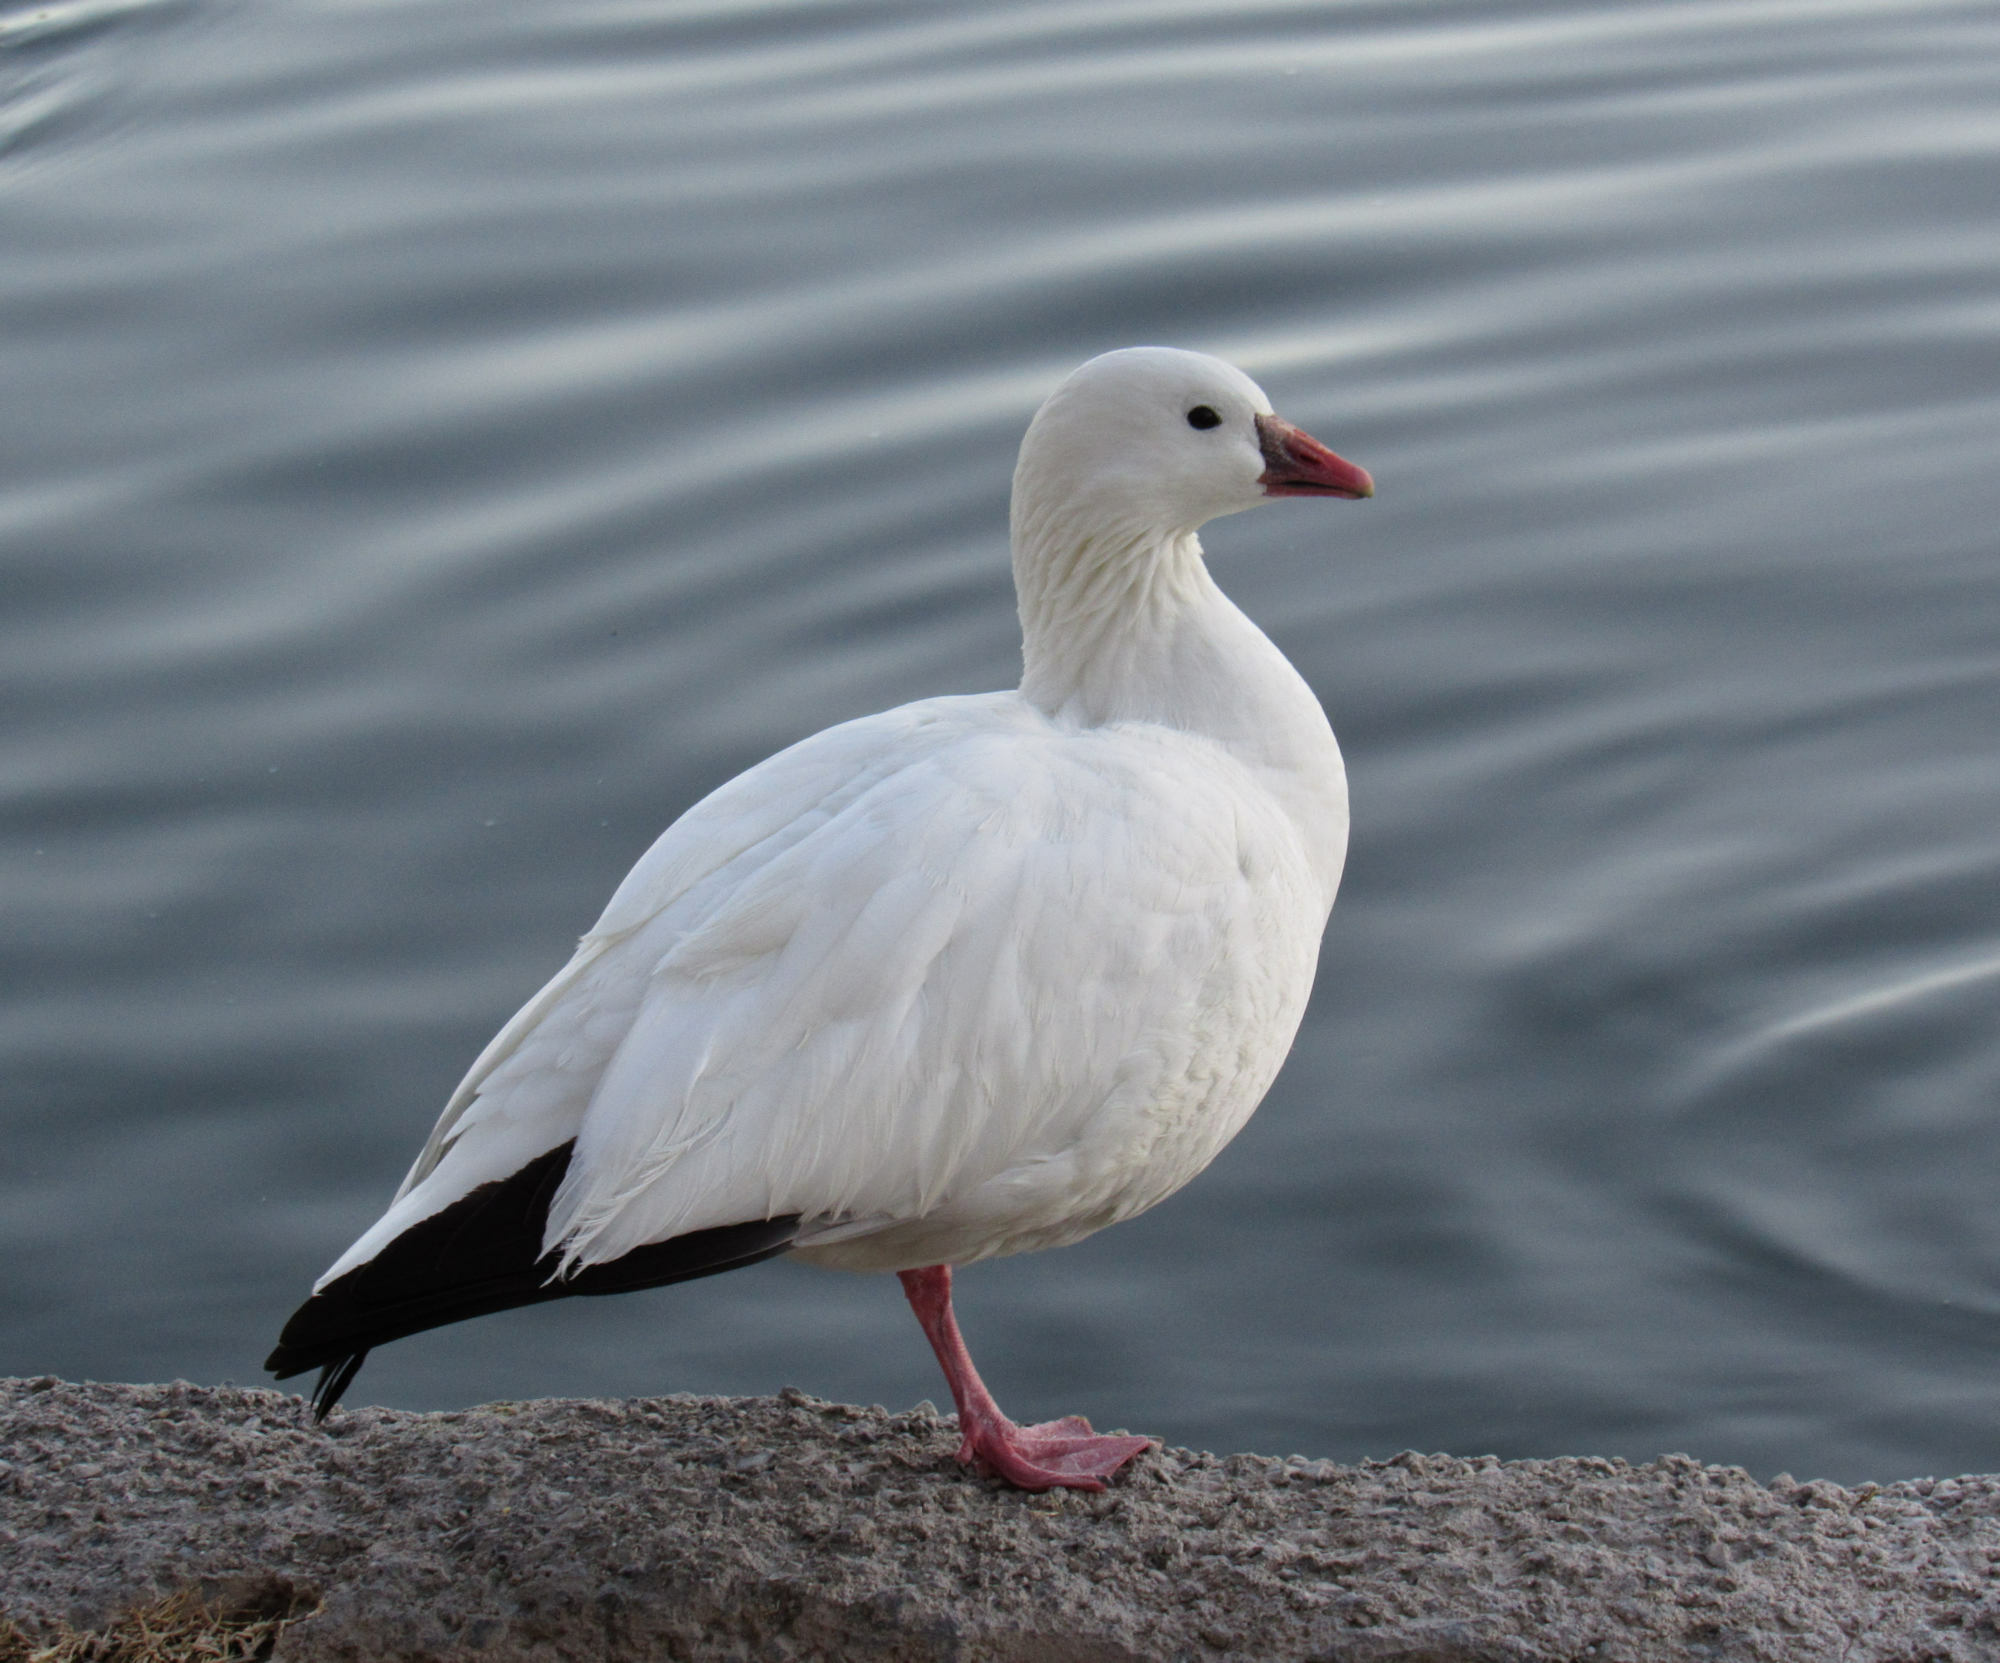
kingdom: Animalia
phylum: Chordata
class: Aves
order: Anseriformes
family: Anatidae
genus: Anser
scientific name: Anser rossii
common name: Ross's goose
